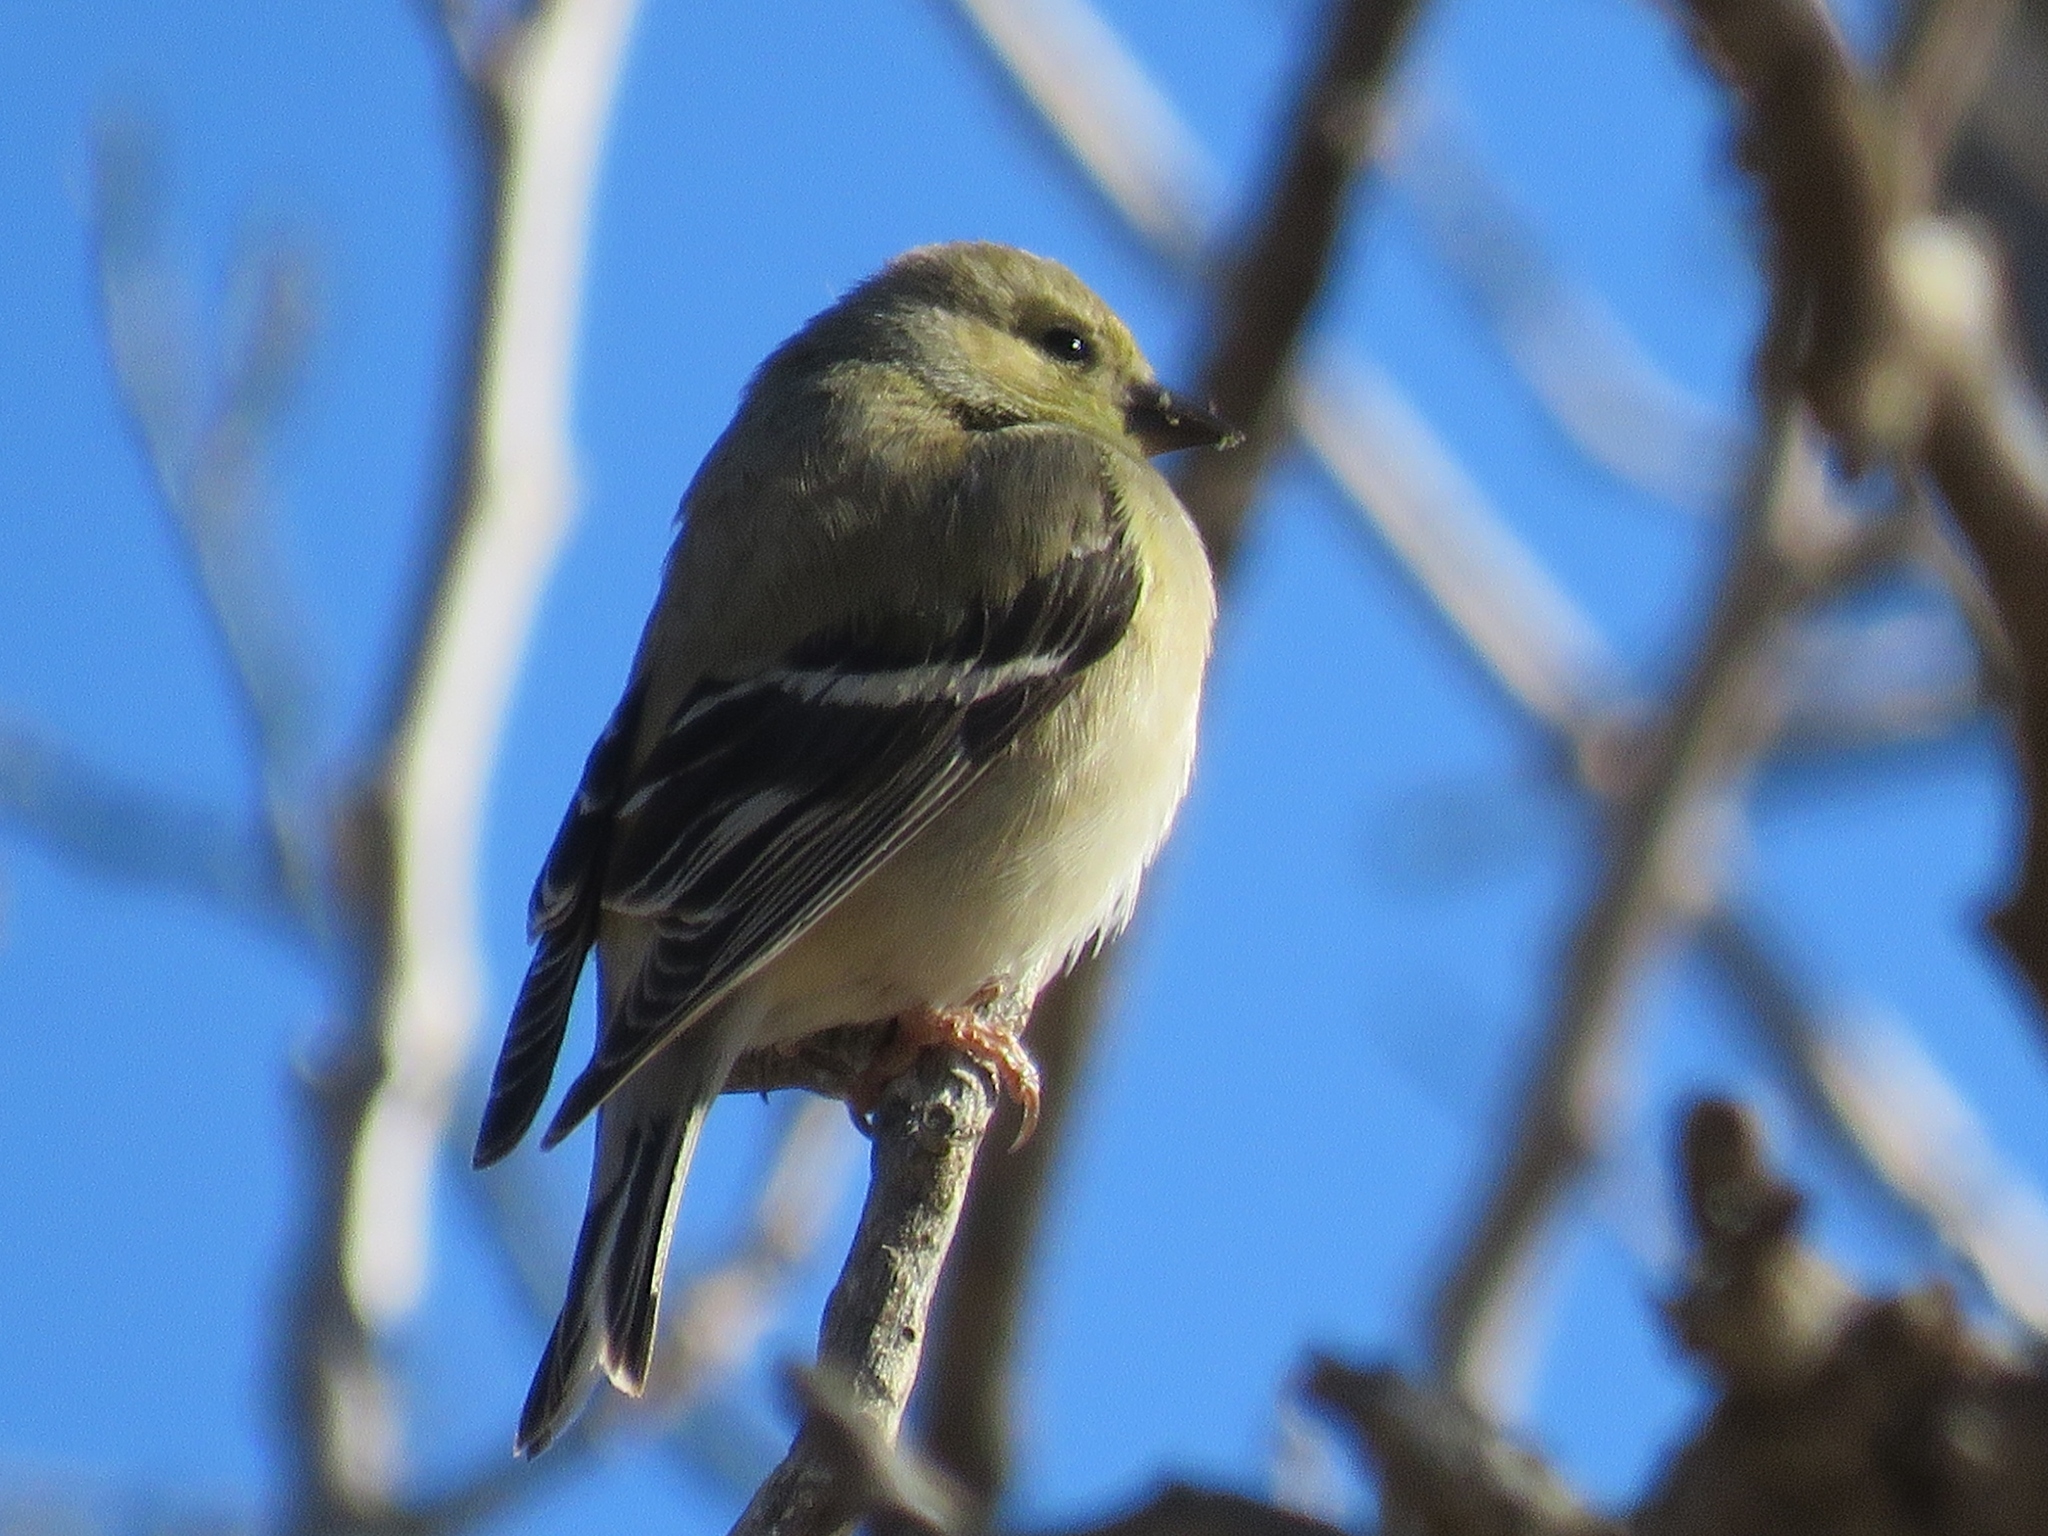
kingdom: Animalia
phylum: Chordata
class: Aves
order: Passeriformes
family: Fringillidae
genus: Spinus
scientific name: Spinus tristis
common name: American goldfinch
